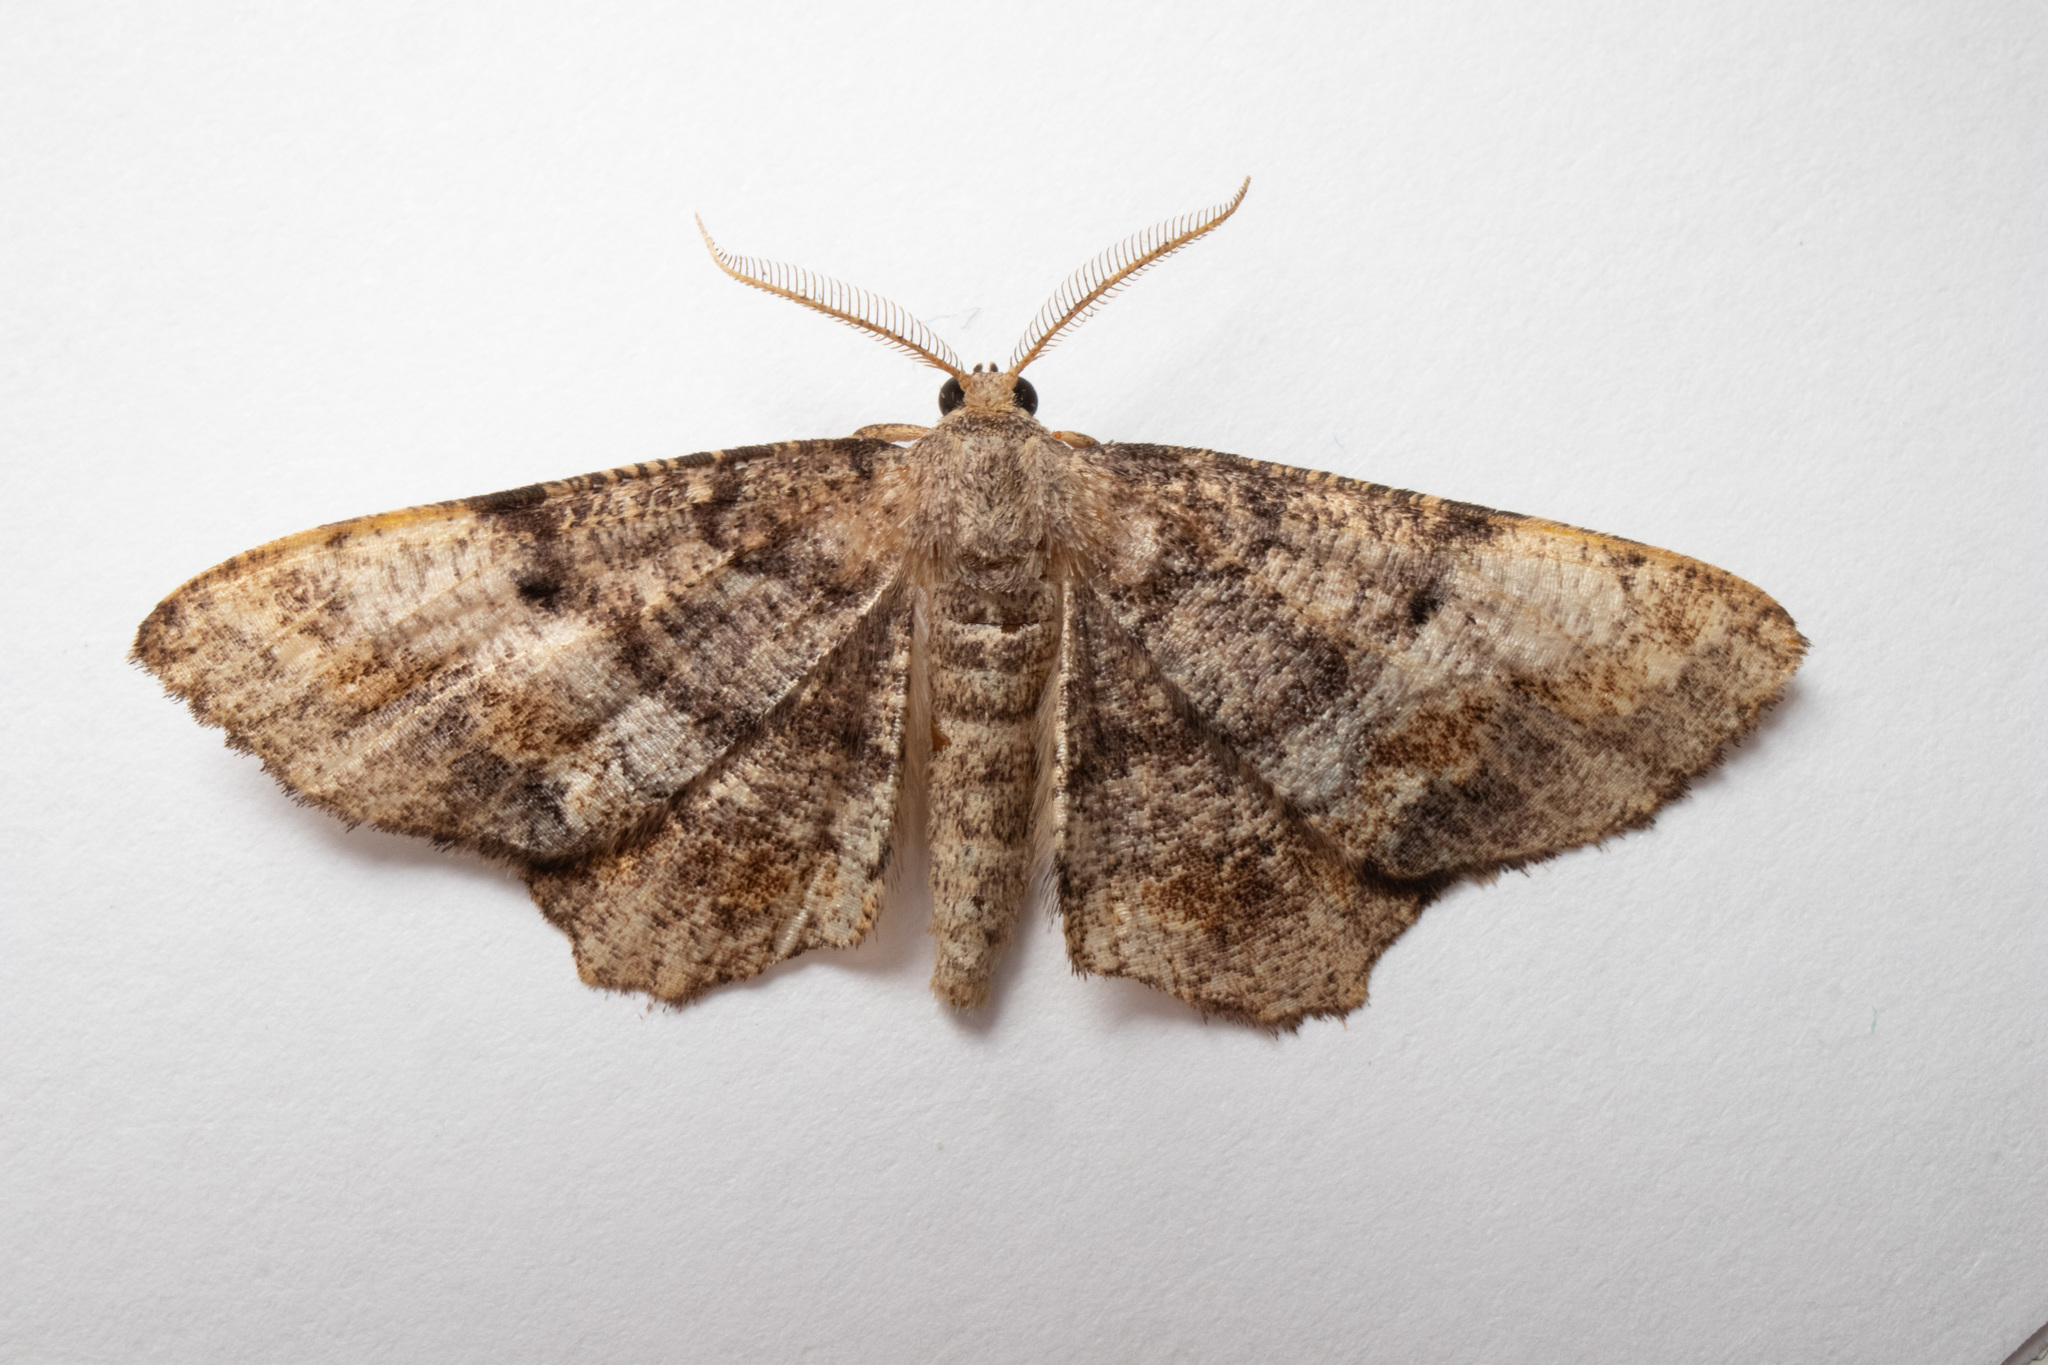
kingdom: Animalia
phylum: Arthropoda
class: Insecta
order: Lepidoptera
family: Geometridae
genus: Hypagyrtis
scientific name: Hypagyrtis unipunctata
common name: One-spotted variant
